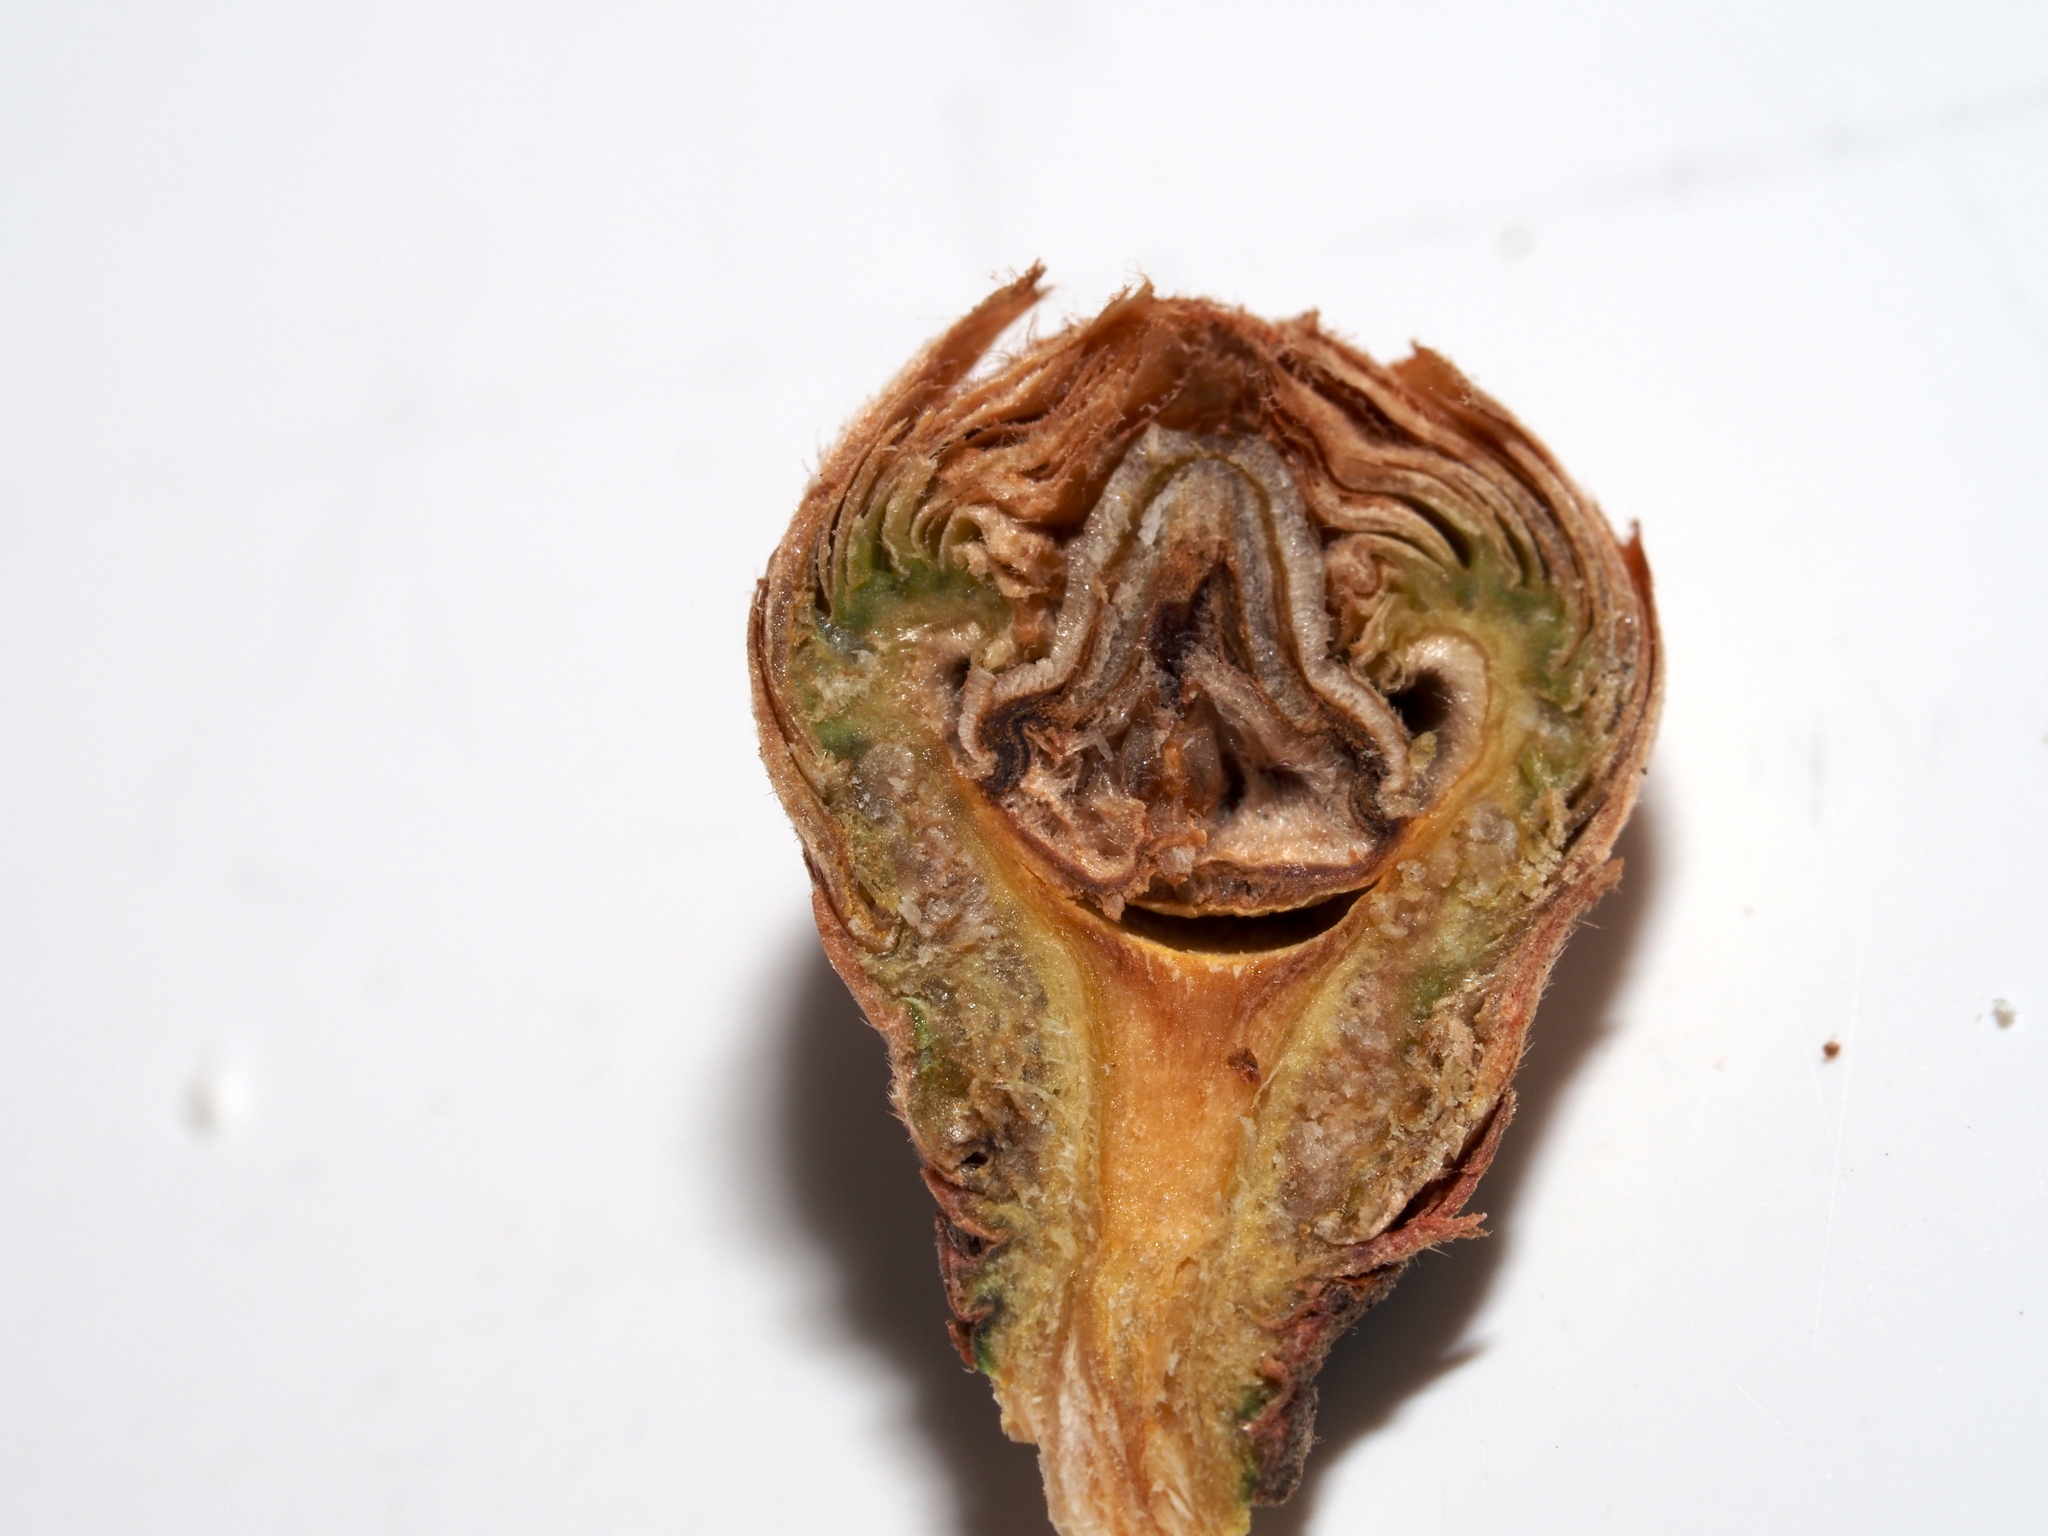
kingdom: Plantae
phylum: Tracheophyta
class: Magnoliopsida
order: Fagales
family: Fagaceae
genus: Quercus
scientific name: Quercus velutina
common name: Black oak
